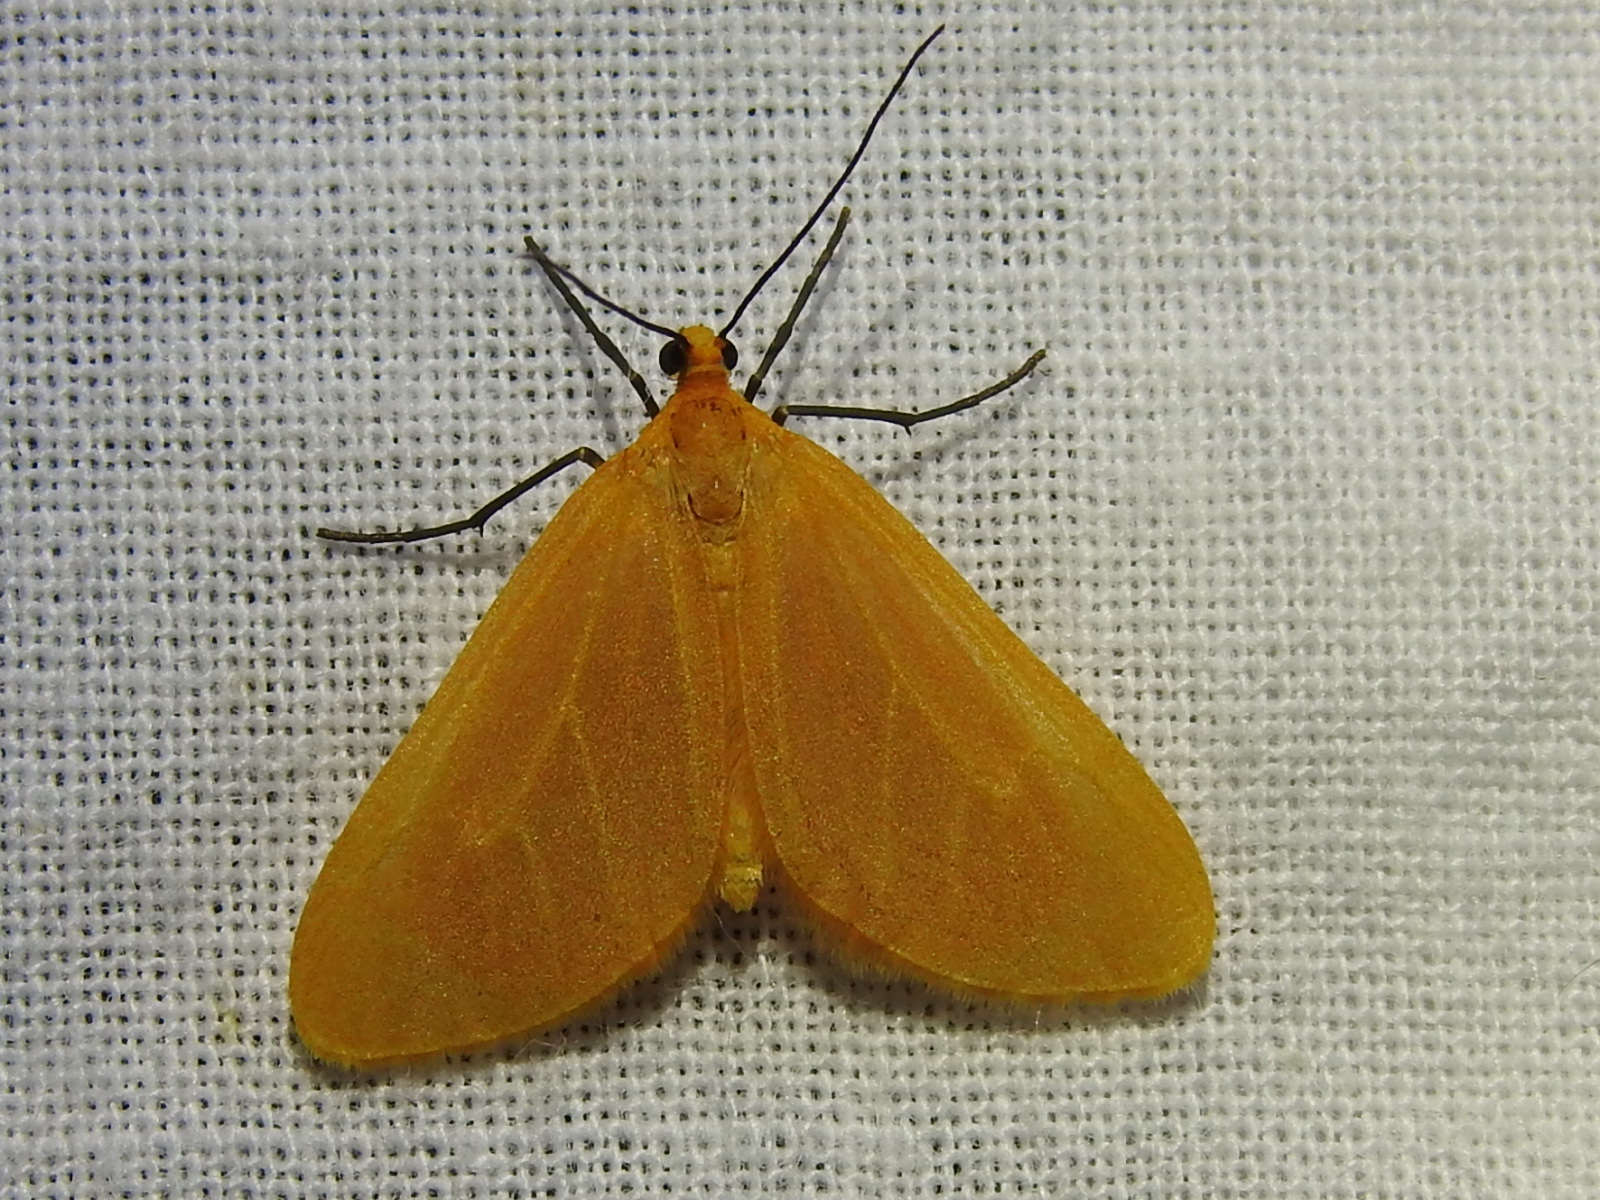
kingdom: Animalia
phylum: Arthropoda
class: Insecta
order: Lepidoptera
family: Geometridae
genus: Eubaphe
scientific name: Eubaphe unicolor
